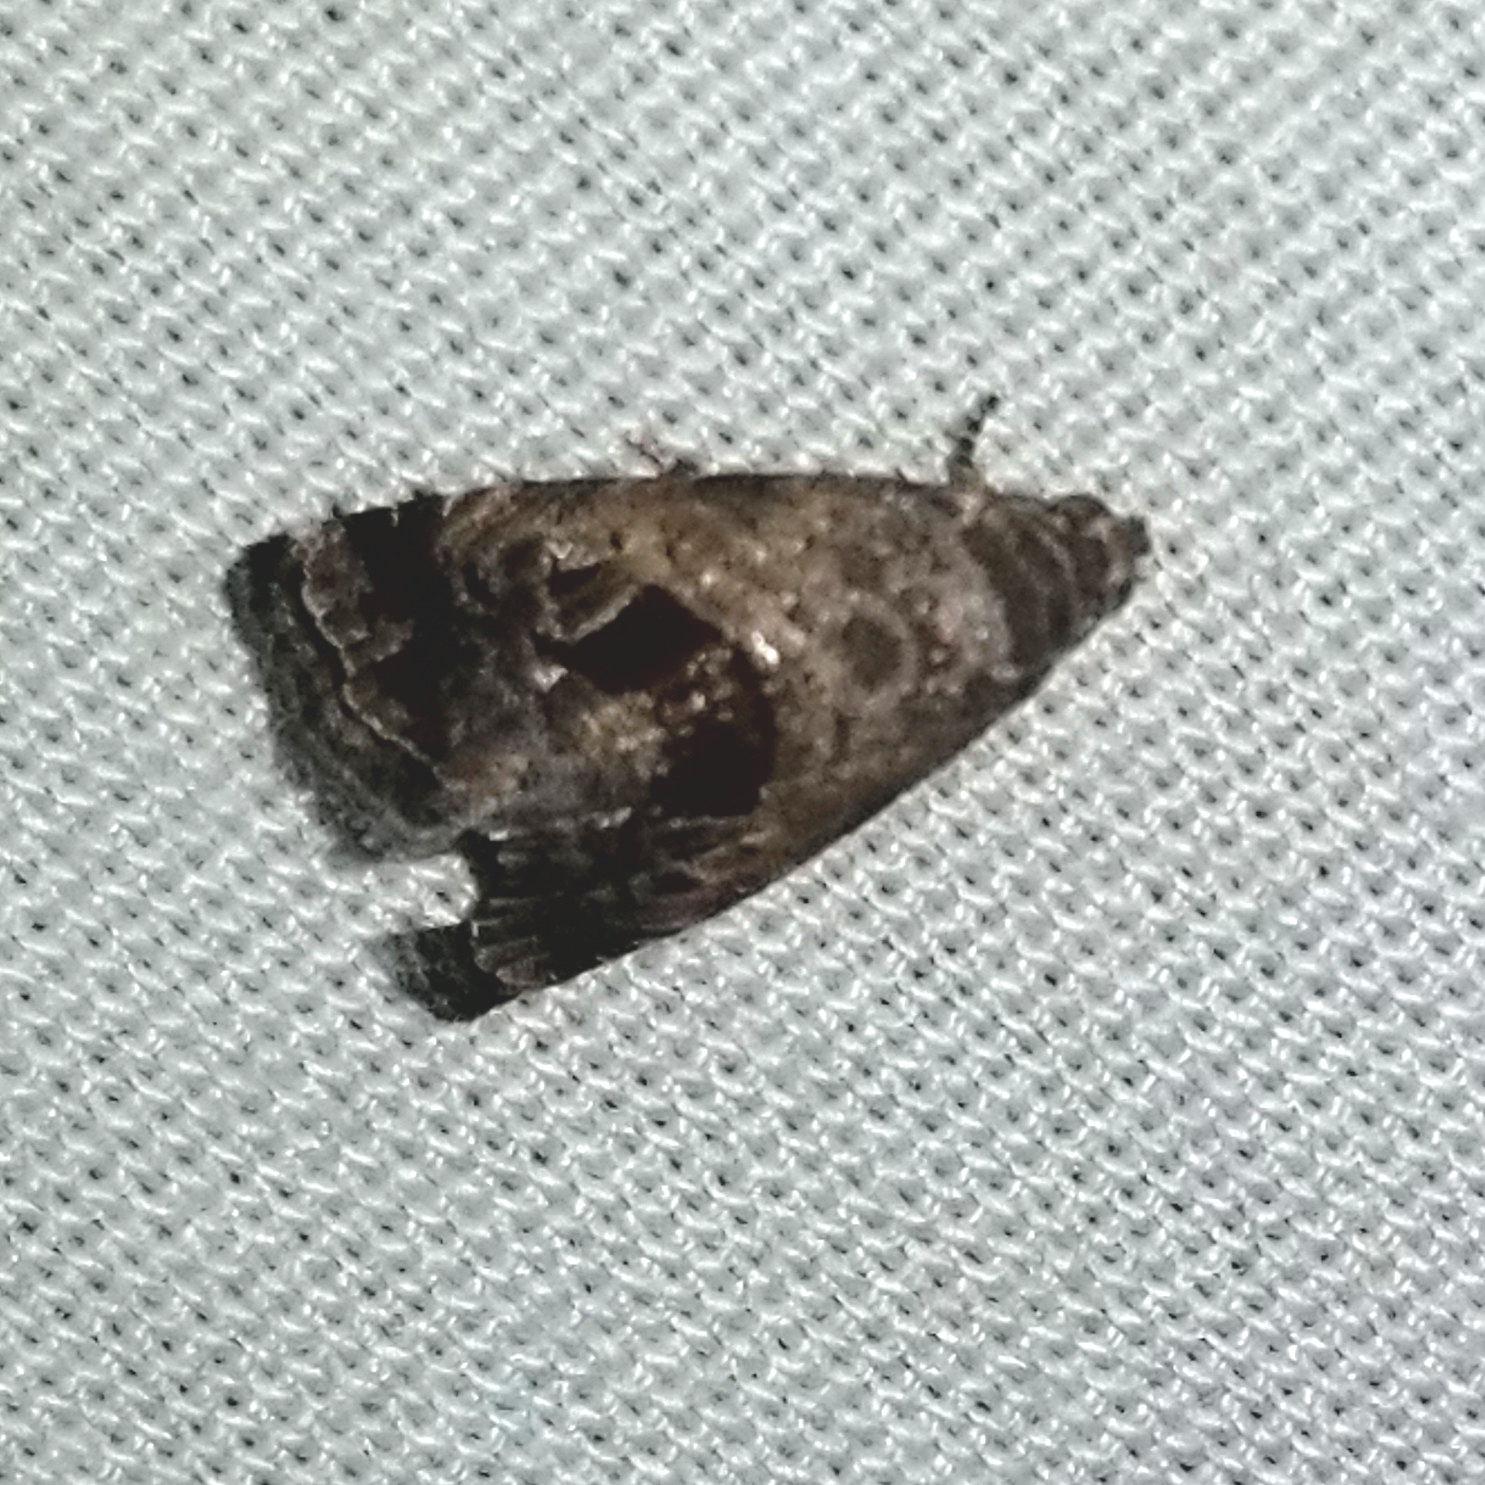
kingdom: Animalia
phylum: Arthropoda
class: Insecta
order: Lepidoptera
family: Noctuidae
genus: Tripudia
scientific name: Tripudia quadrifera
